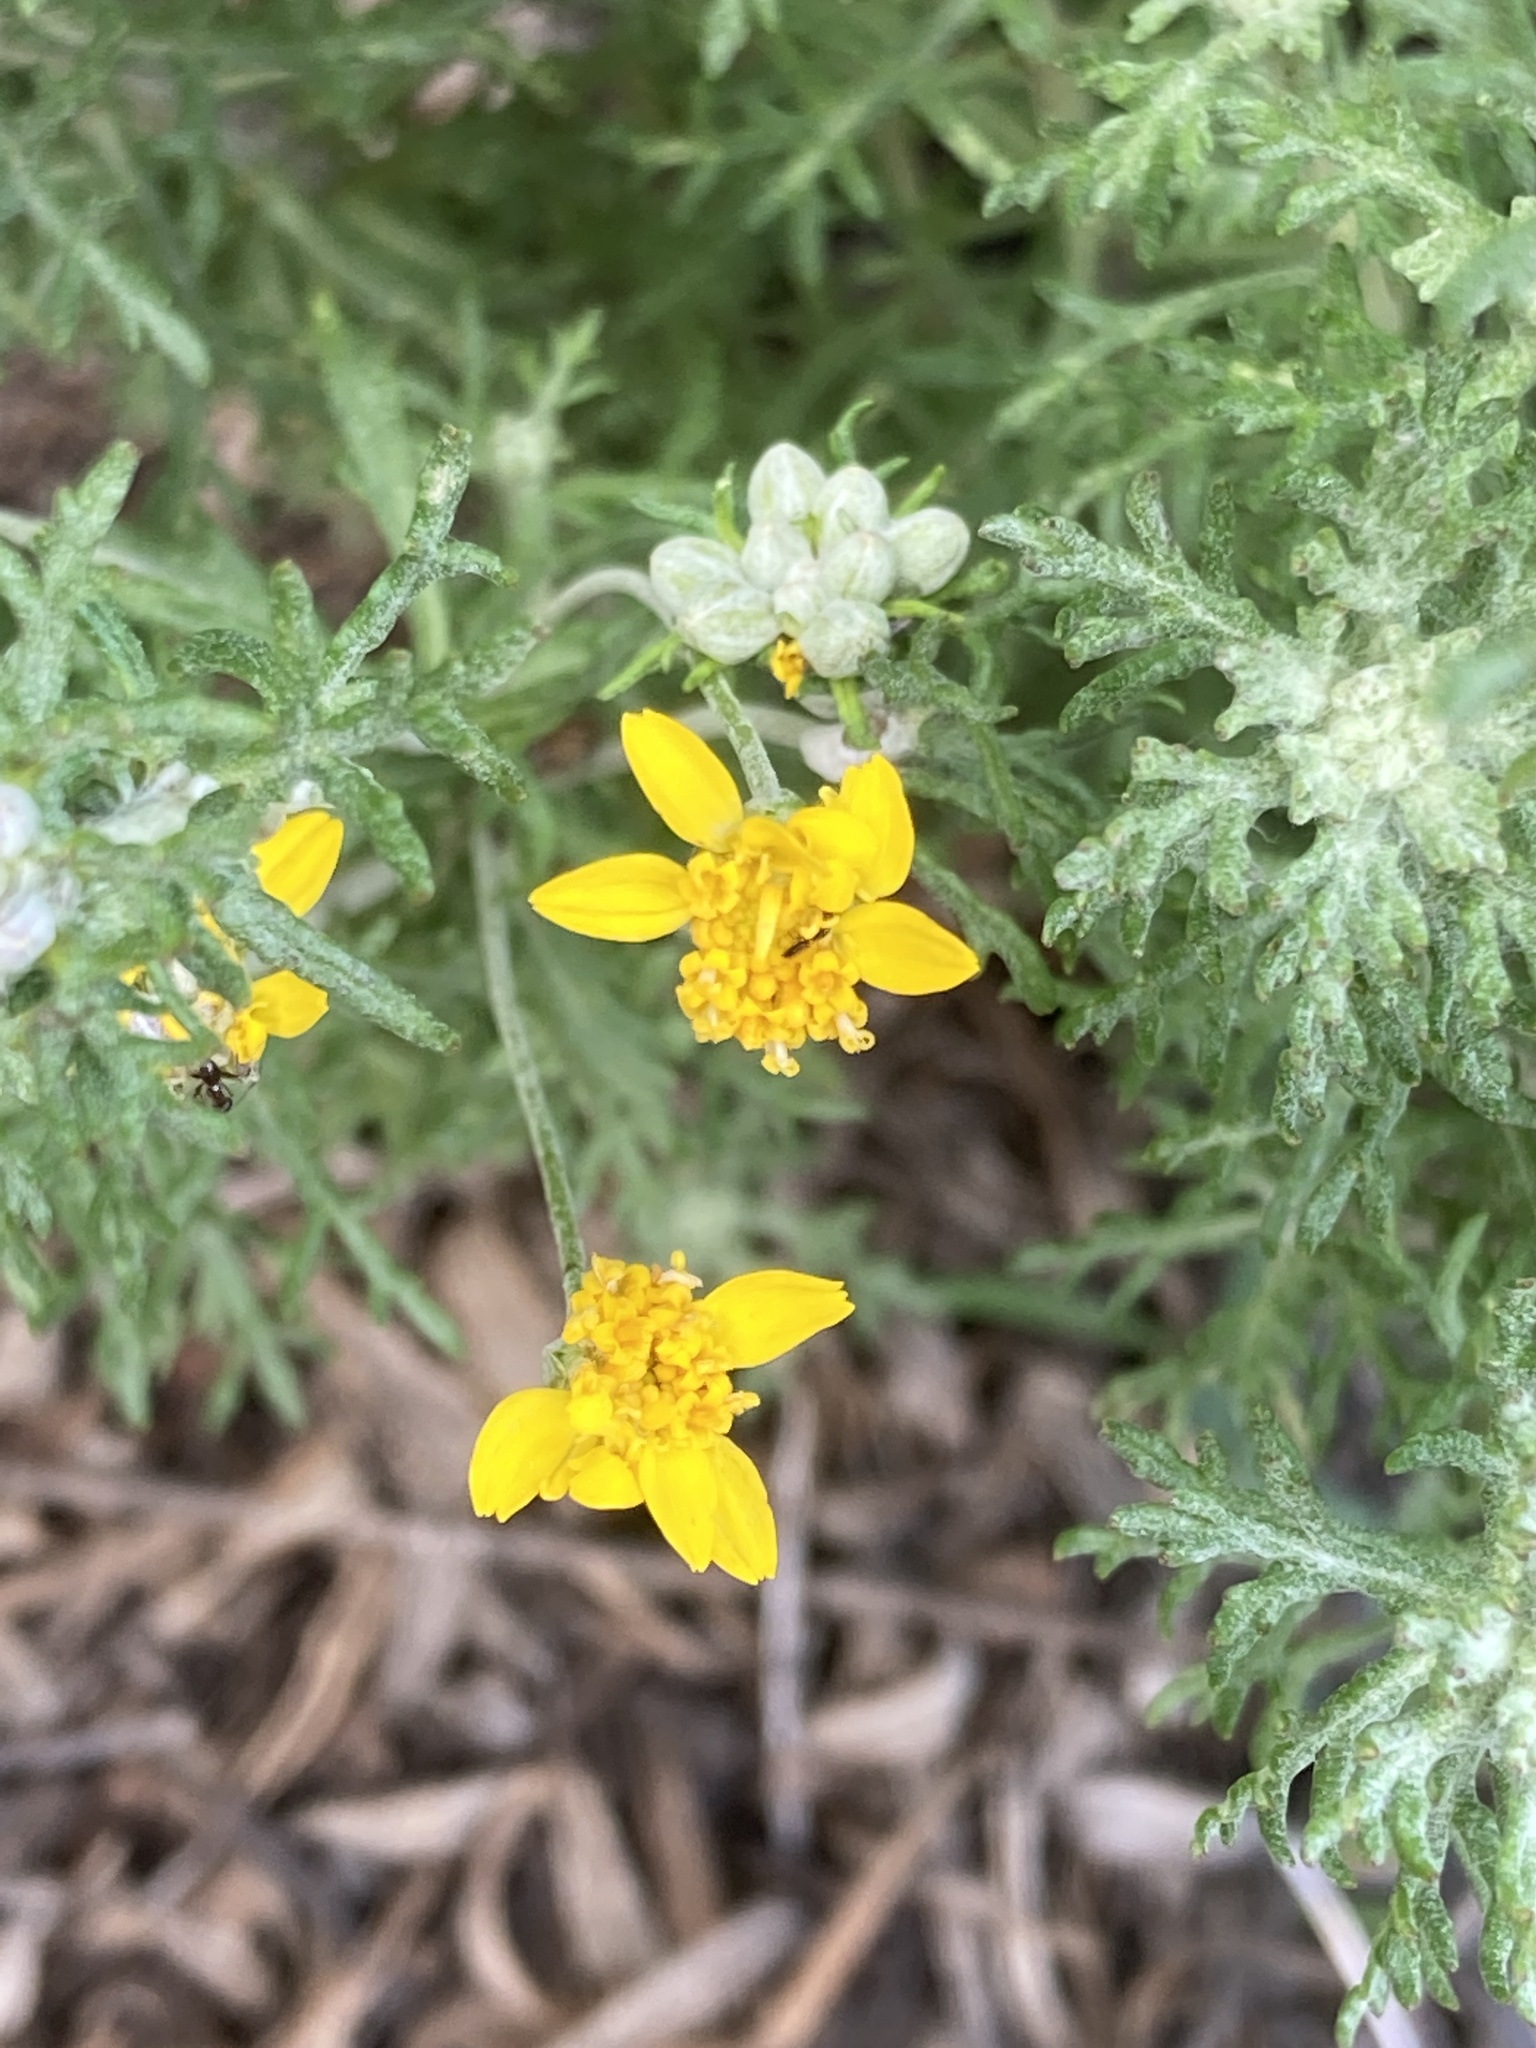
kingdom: Plantae
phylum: Tracheophyta
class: Magnoliopsida
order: Asterales
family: Asteraceae
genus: Eriophyllum
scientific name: Eriophyllum confertiflorum
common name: Golden-yarrow
